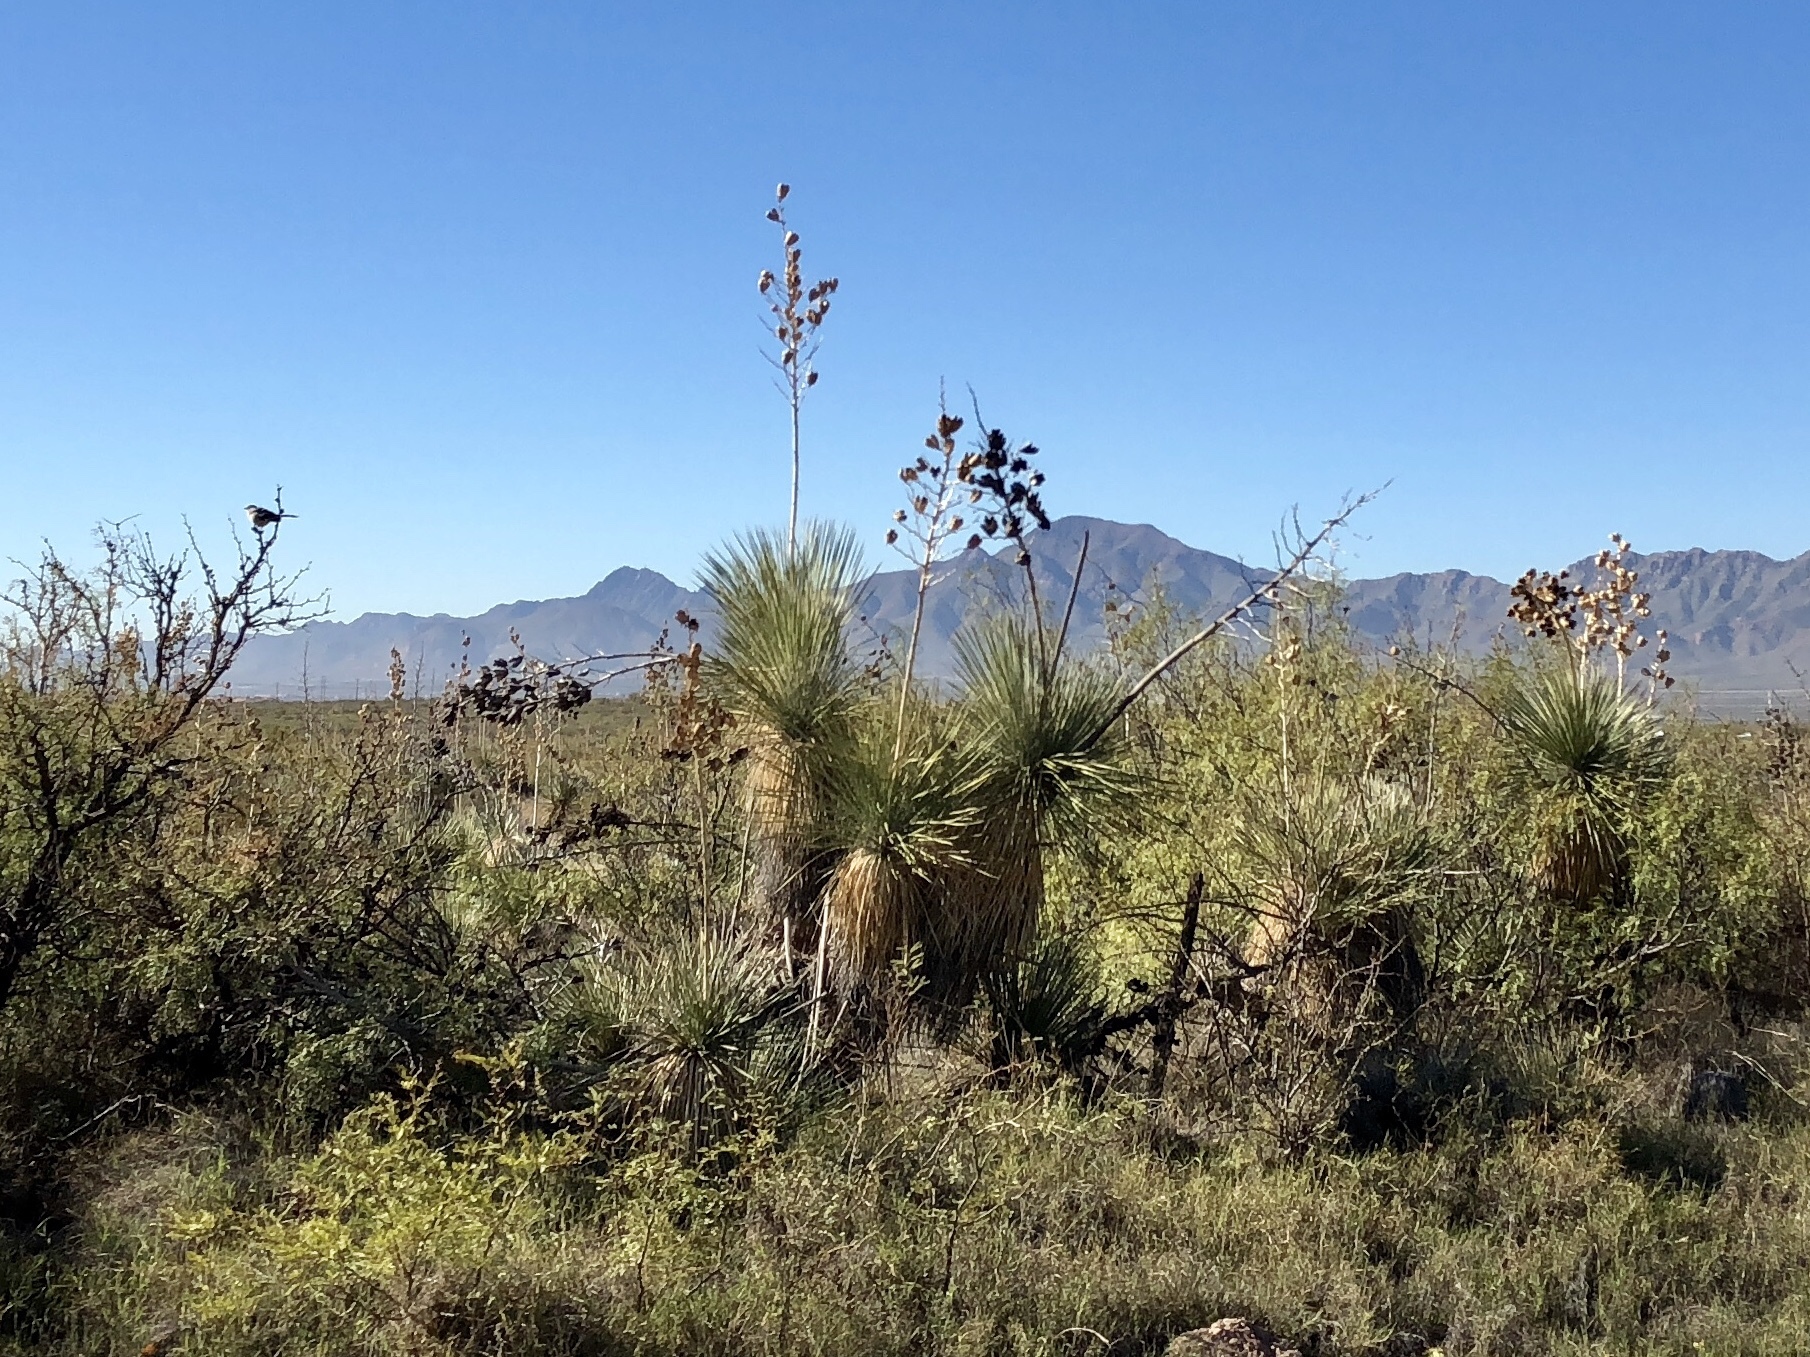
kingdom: Plantae
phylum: Tracheophyta
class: Liliopsida
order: Asparagales
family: Asparagaceae
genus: Yucca
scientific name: Yucca elata
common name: Palmella
